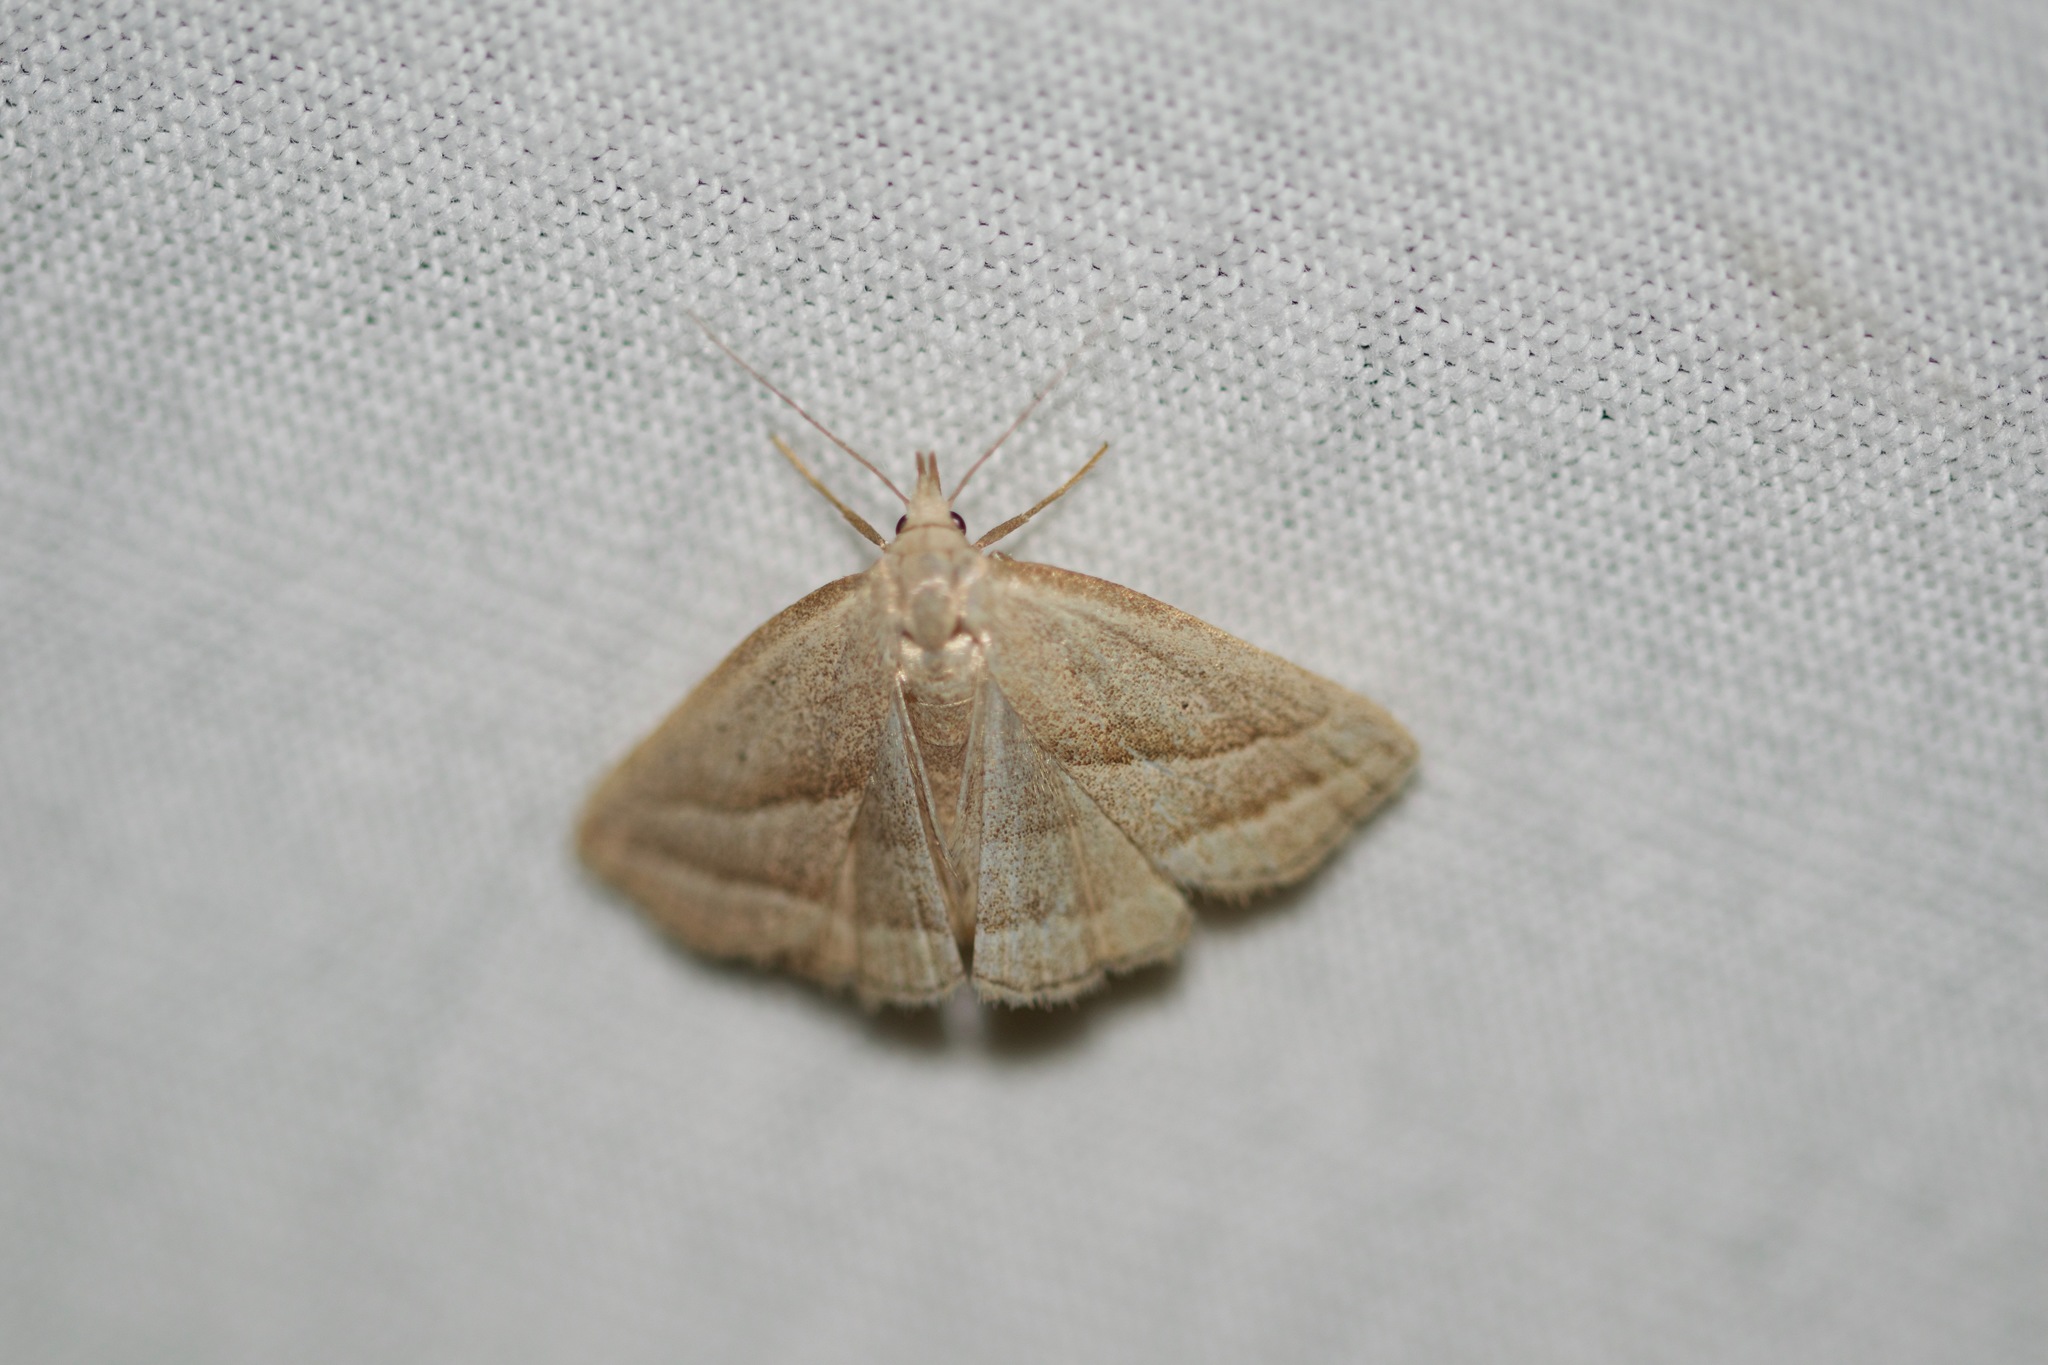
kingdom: Animalia
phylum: Arthropoda
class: Insecta
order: Lepidoptera
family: Erebidae
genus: Macrochilo
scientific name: Macrochilo absorptalis
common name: Slant-lined owlet
